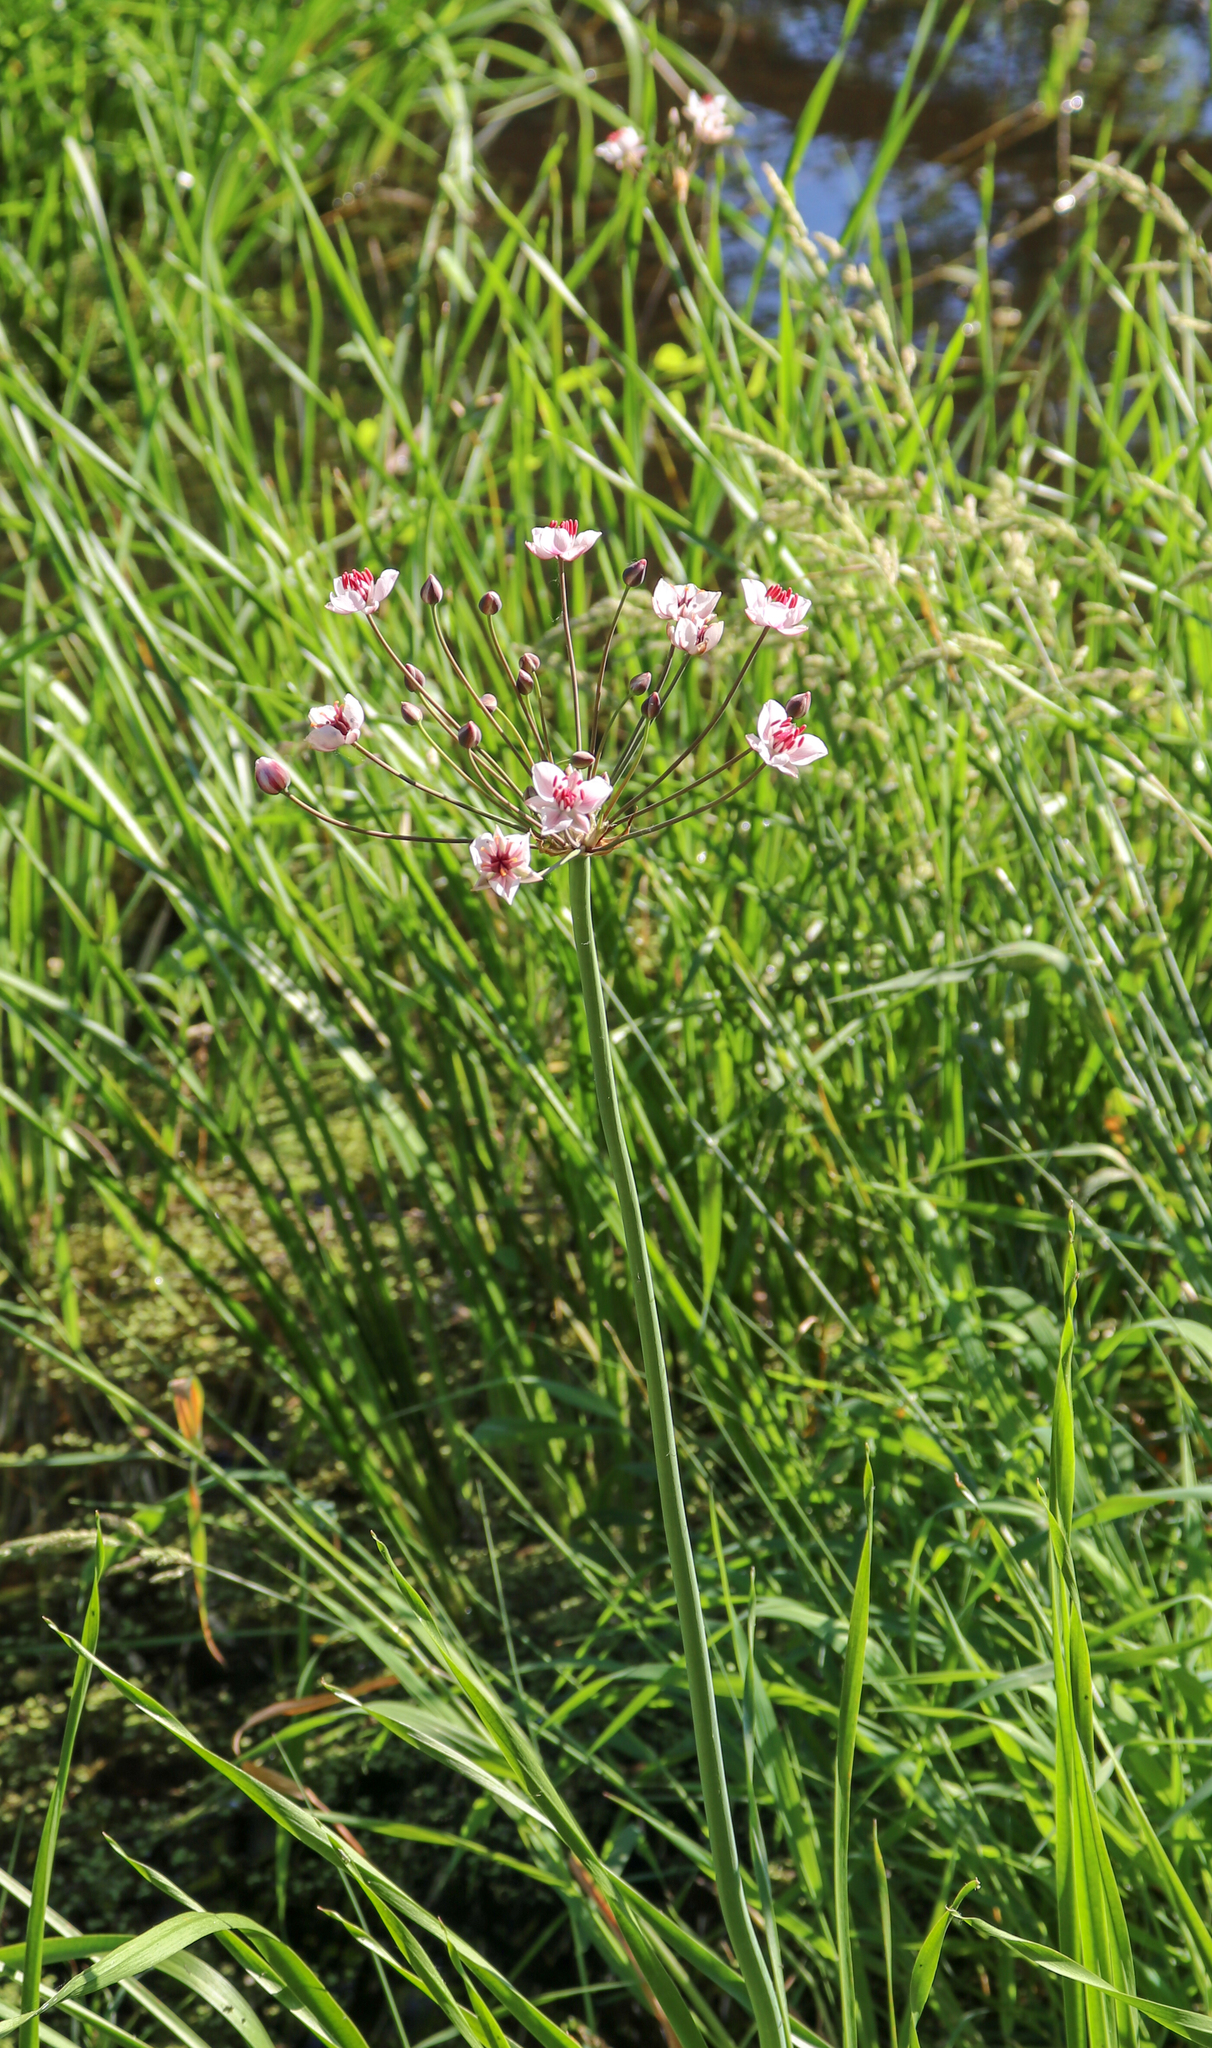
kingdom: Plantae
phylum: Tracheophyta
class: Liliopsida
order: Alismatales
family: Butomaceae
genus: Butomus
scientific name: Butomus umbellatus
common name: Flowering-rush
